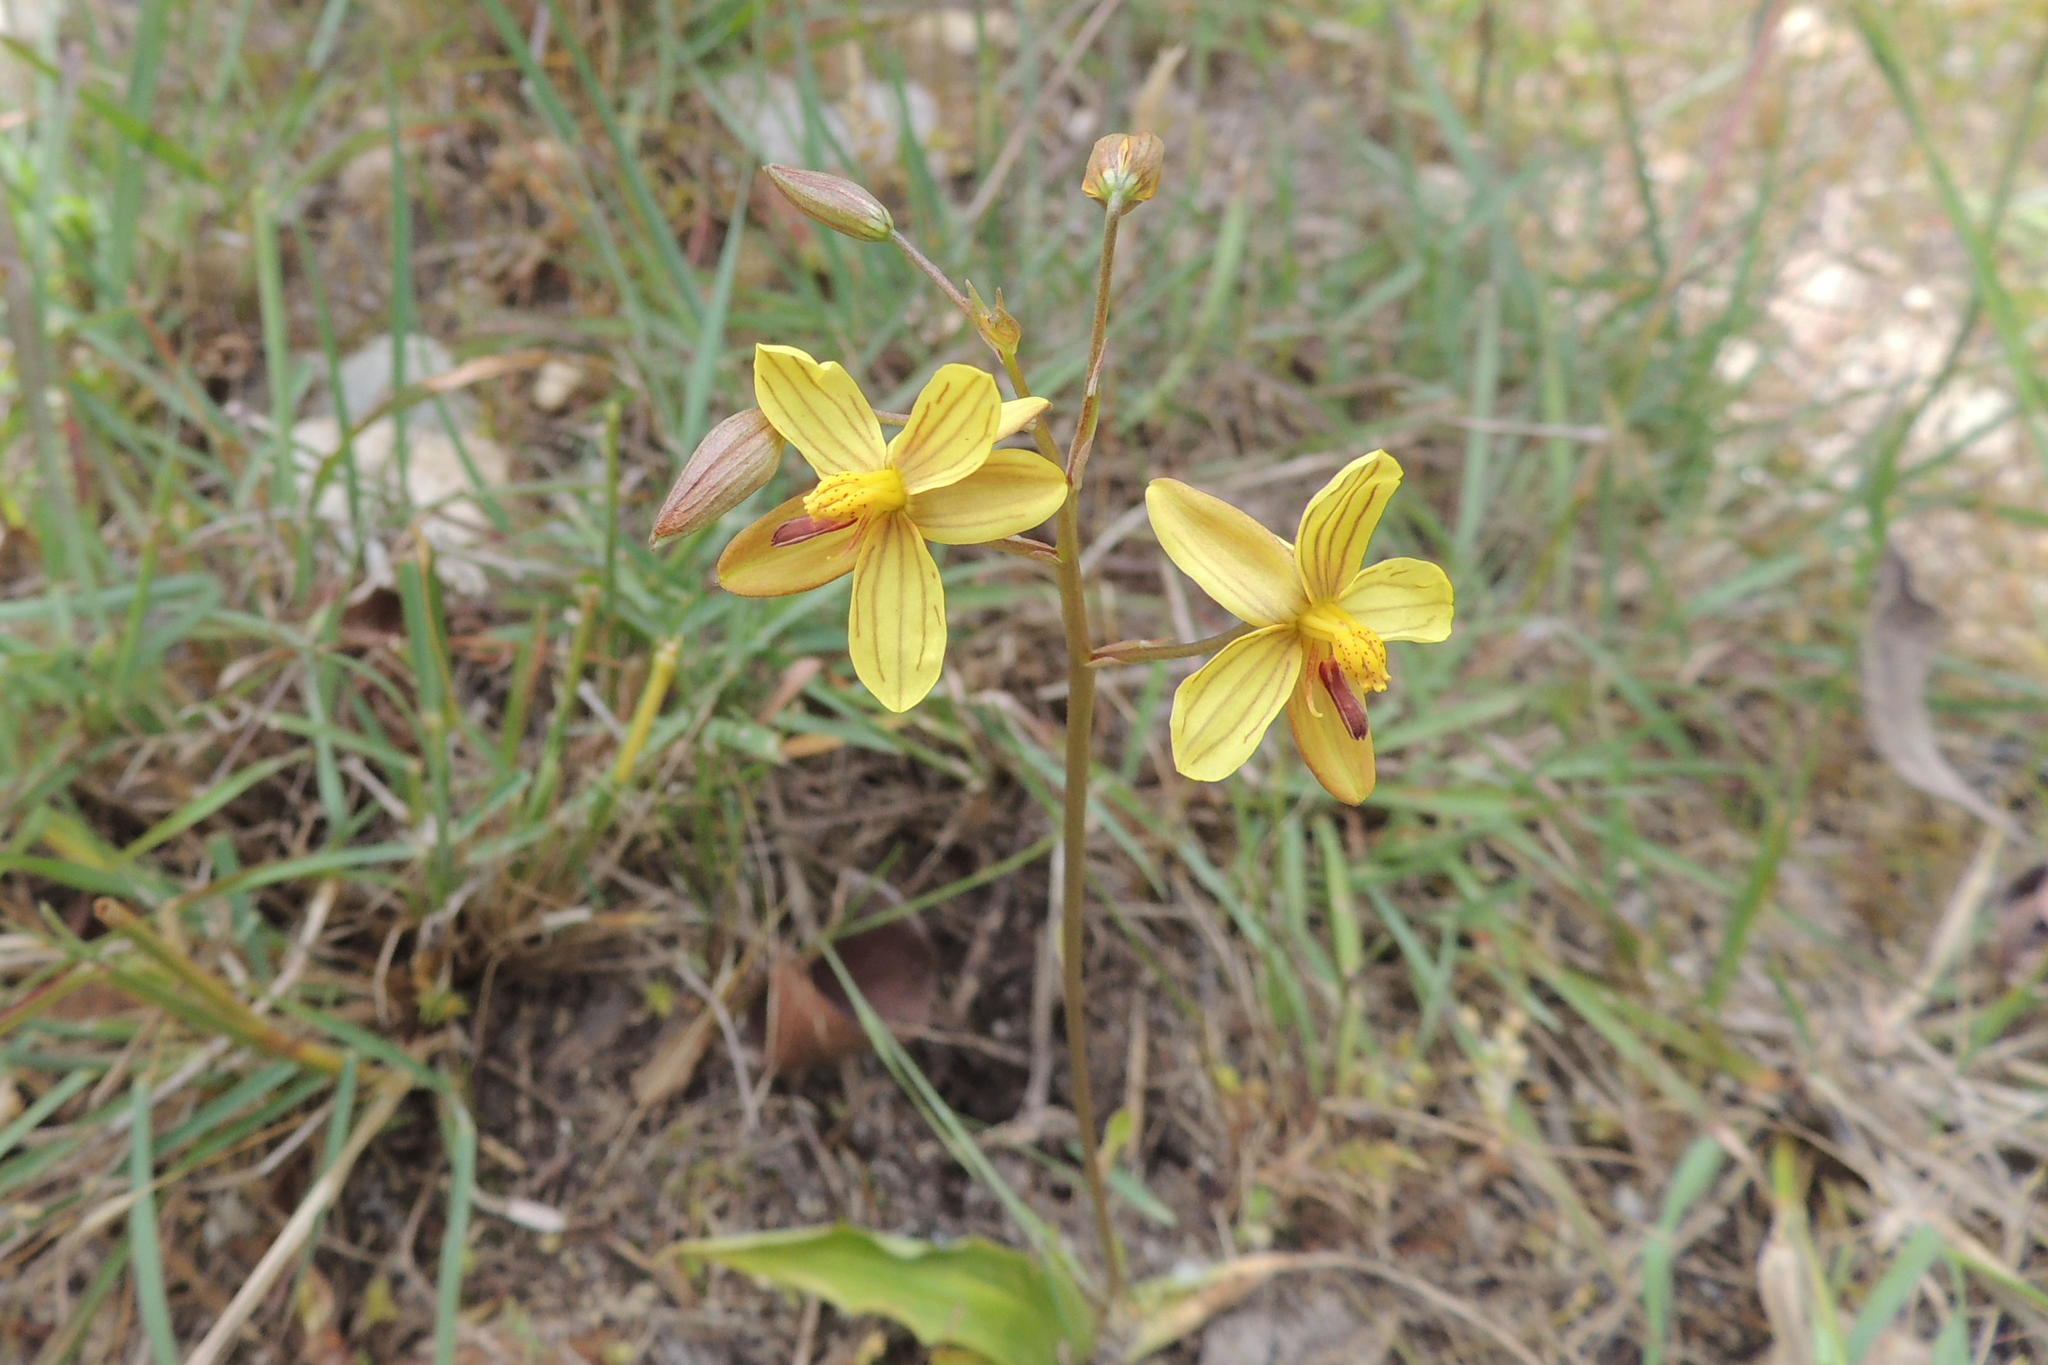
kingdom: Plantae
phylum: Tracheophyta
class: Liliopsida
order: Asparagales
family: Tecophilaeaceae
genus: Cyanella
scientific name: Cyanella lutea
